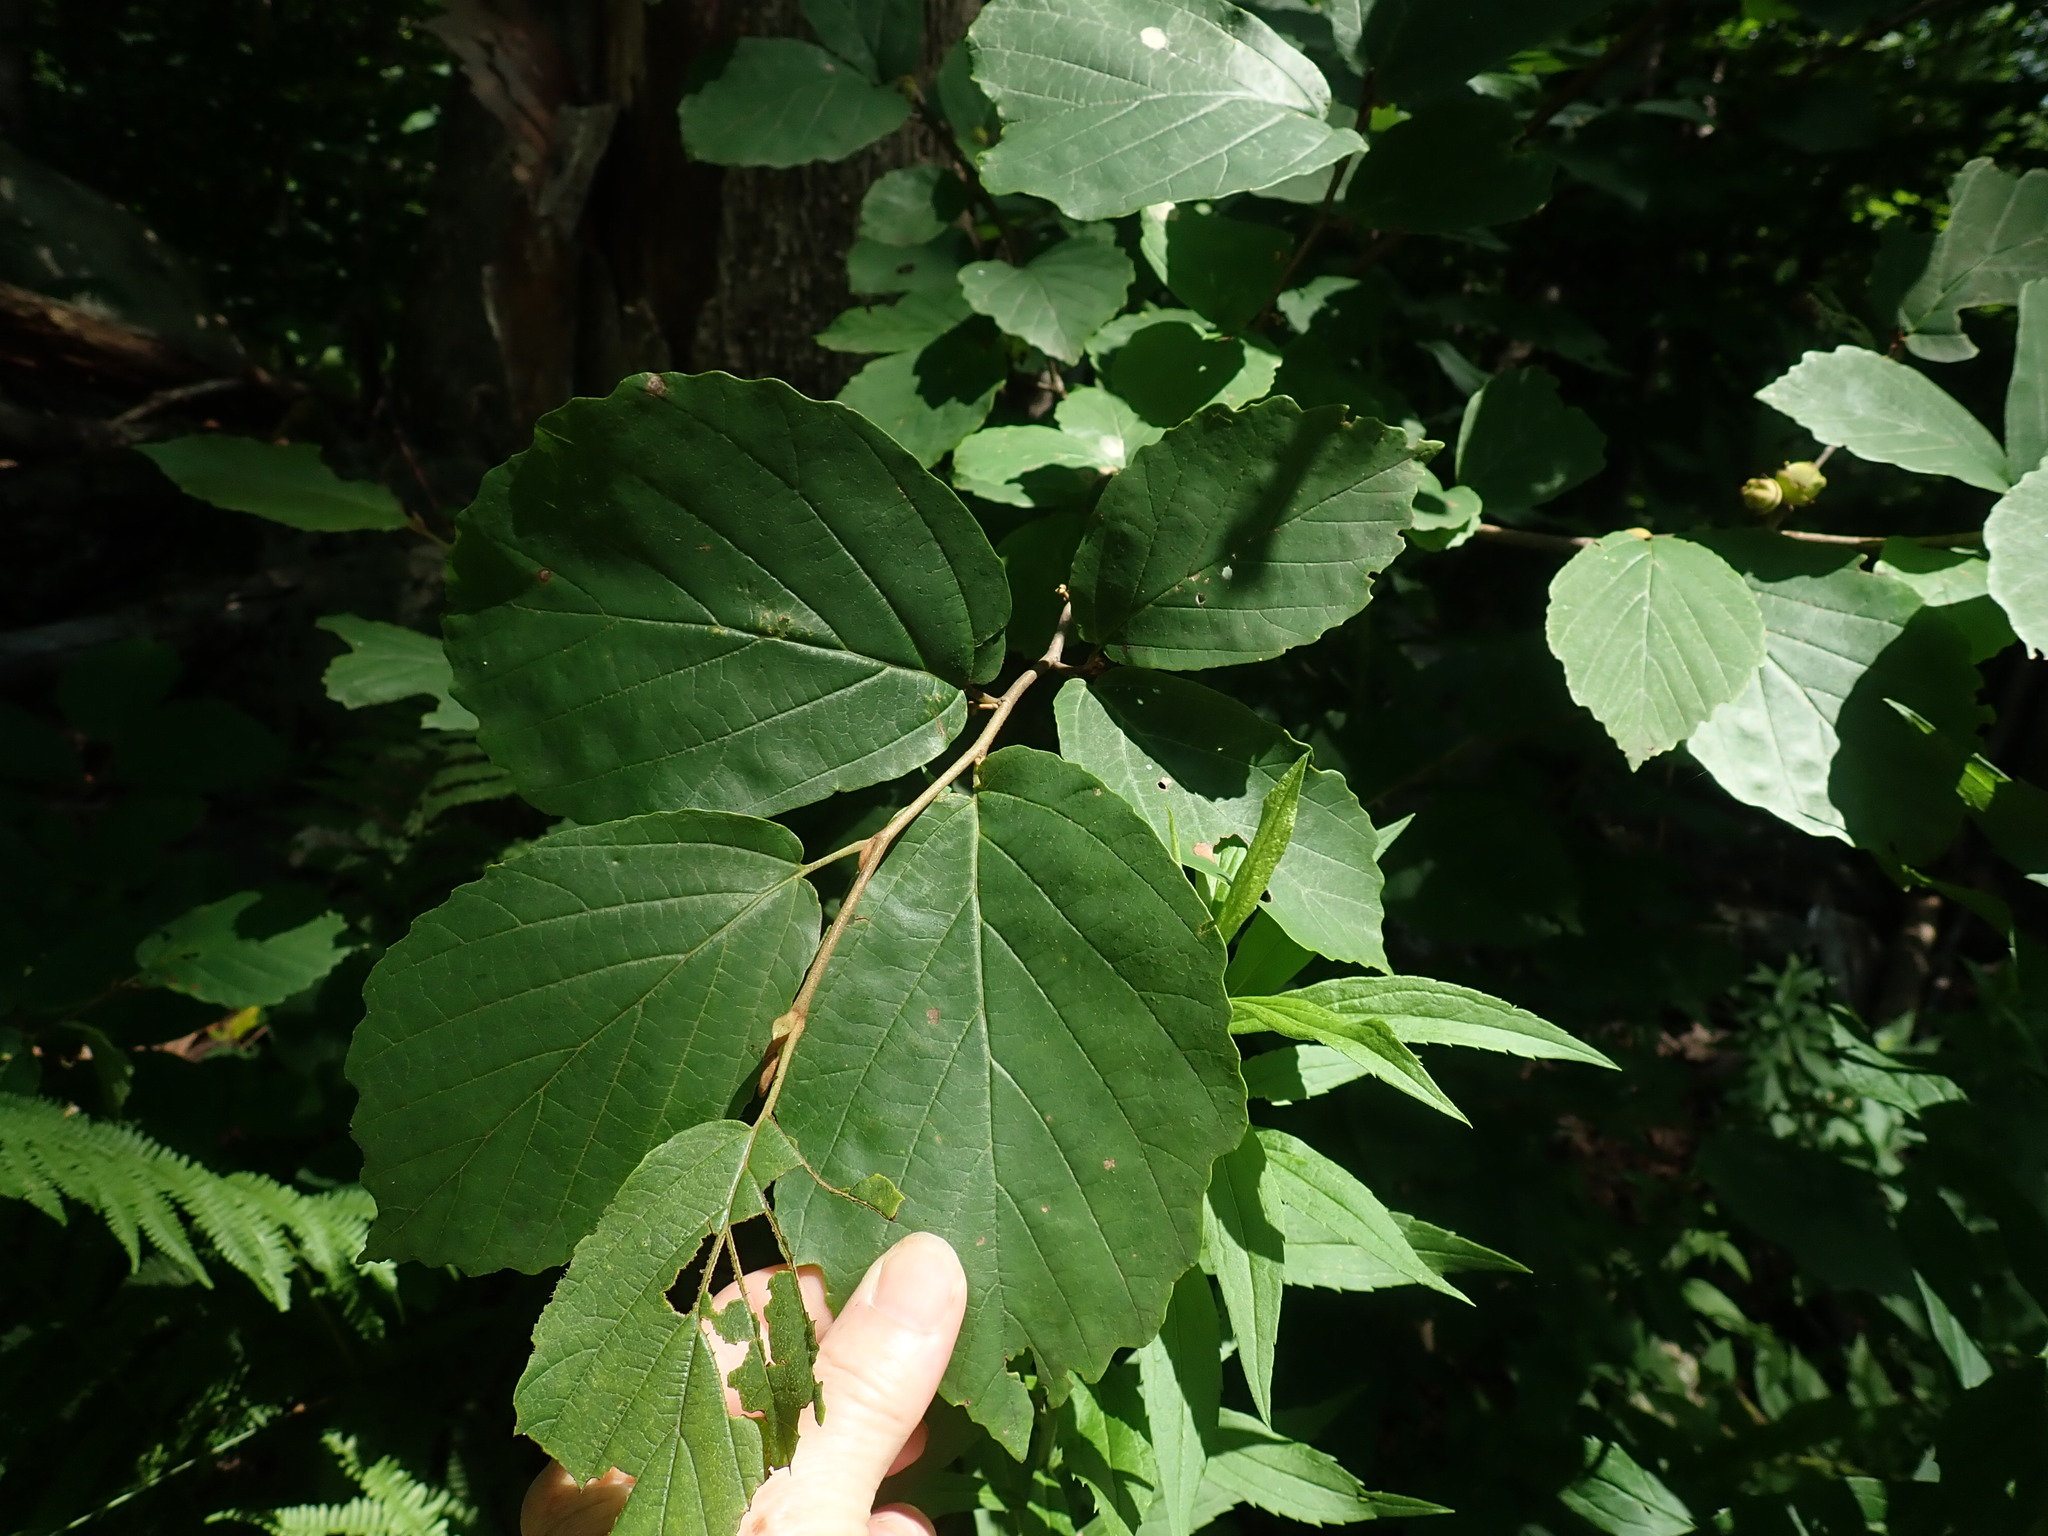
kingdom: Plantae
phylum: Tracheophyta
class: Magnoliopsida
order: Saxifragales
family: Hamamelidaceae
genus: Hamamelis
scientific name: Hamamelis virginiana
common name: Witch-hazel
